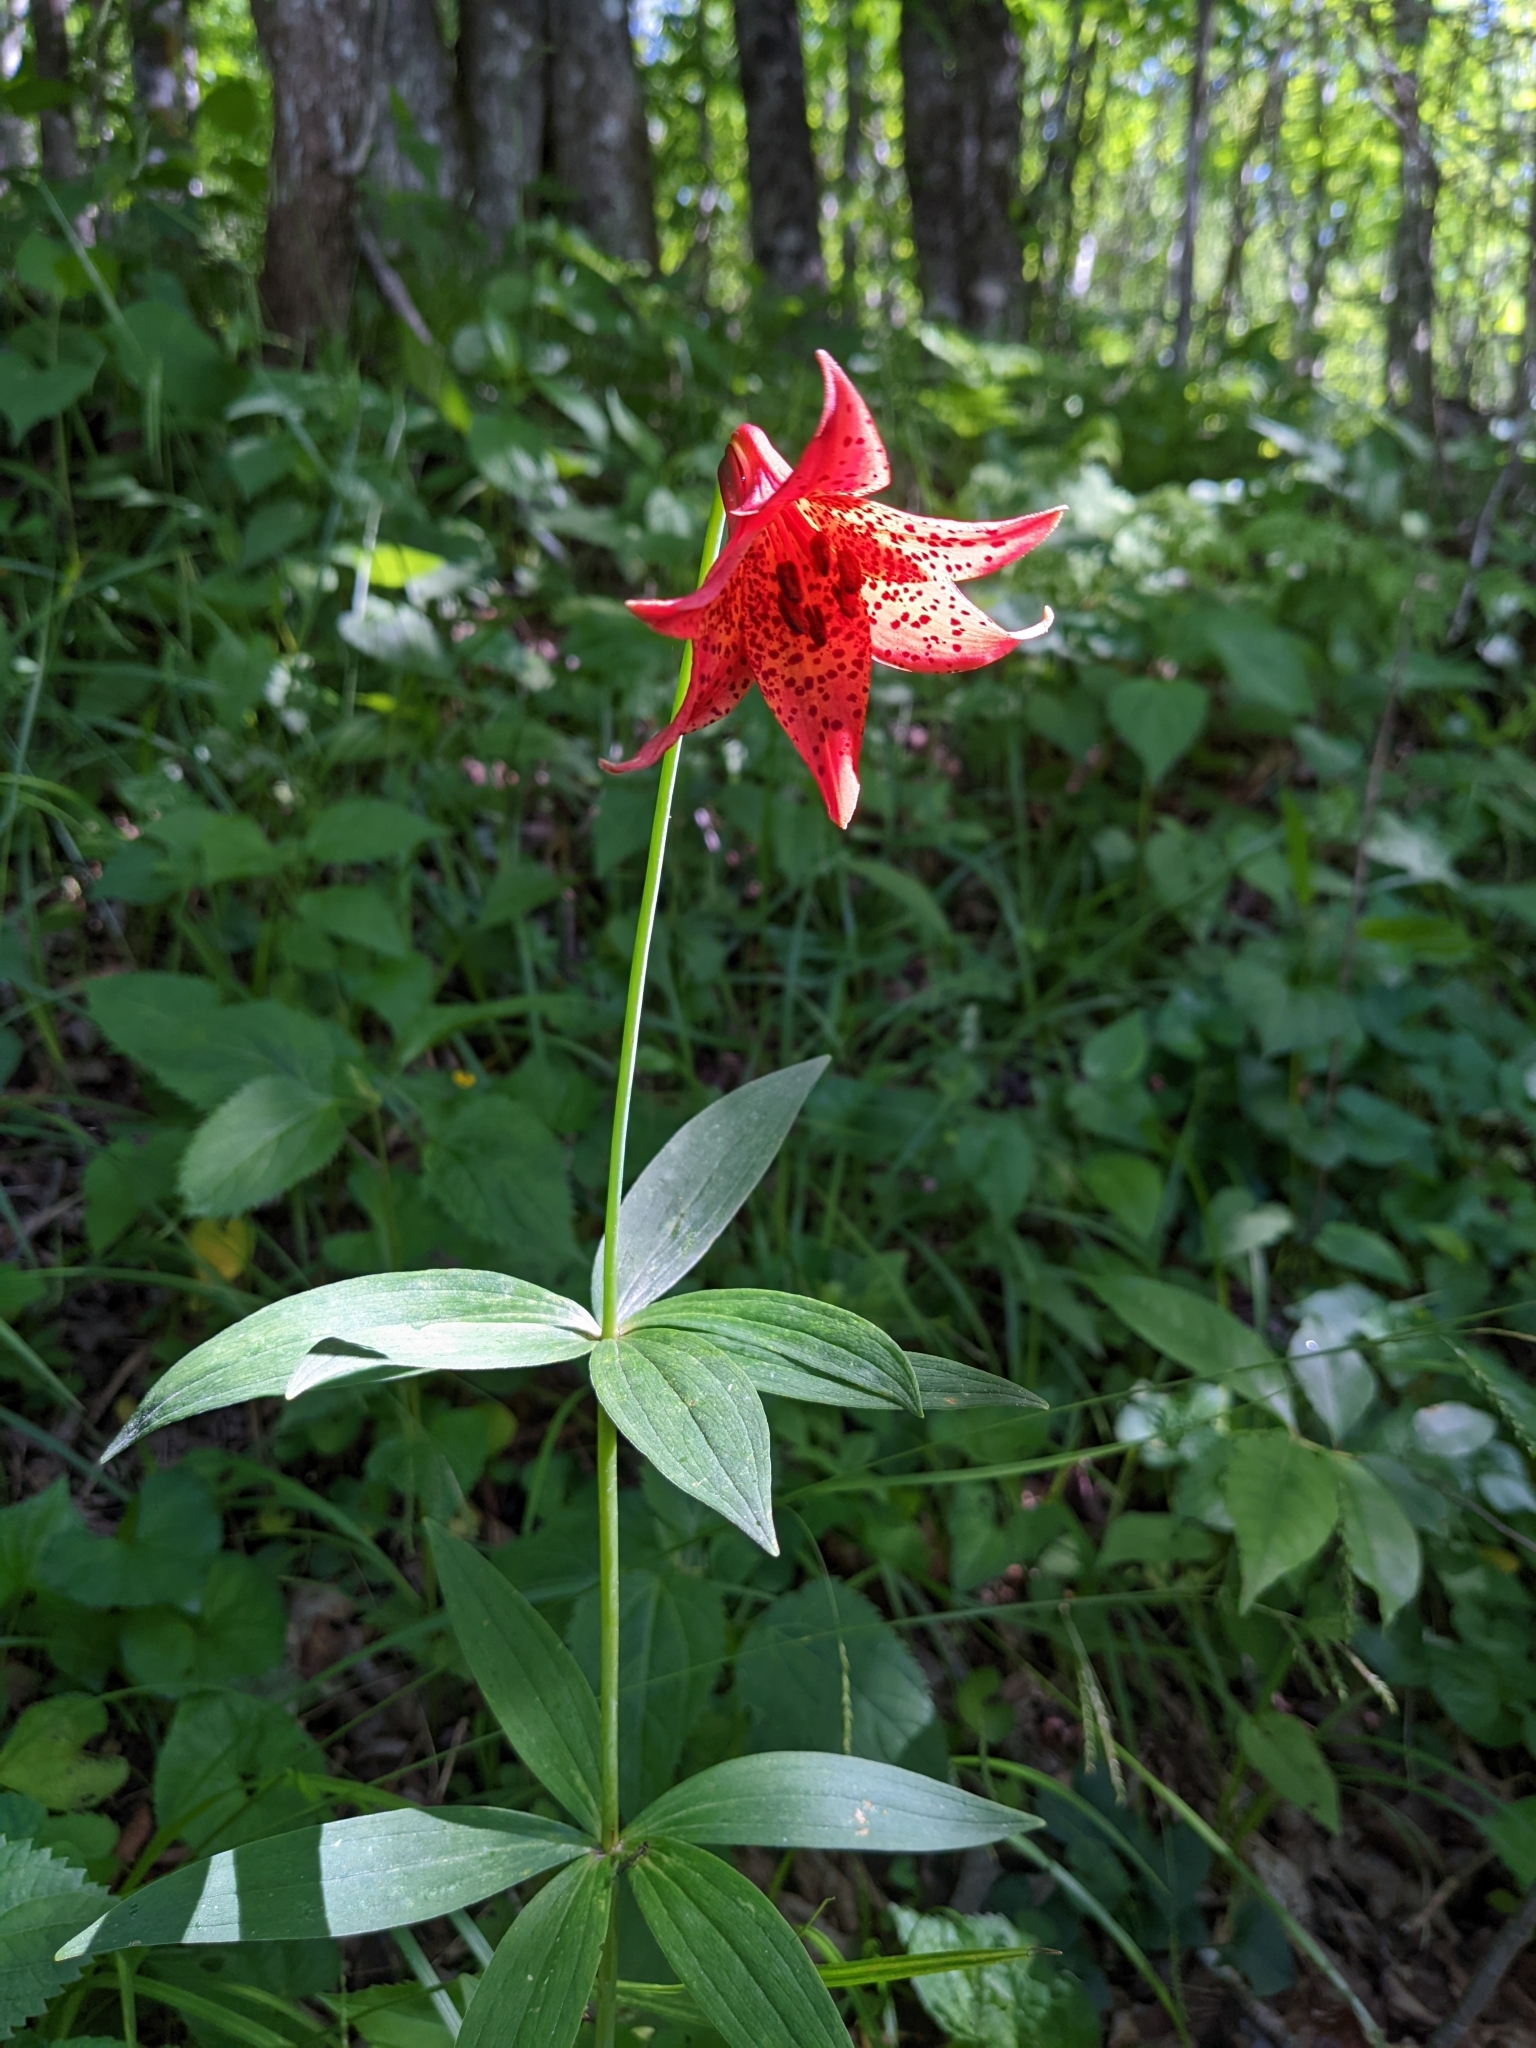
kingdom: Plantae
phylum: Tracheophyta
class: Liliopsida
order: Liliales
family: Liliaceae
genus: Lilium
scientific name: Lilium grayi
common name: Gray's lily
